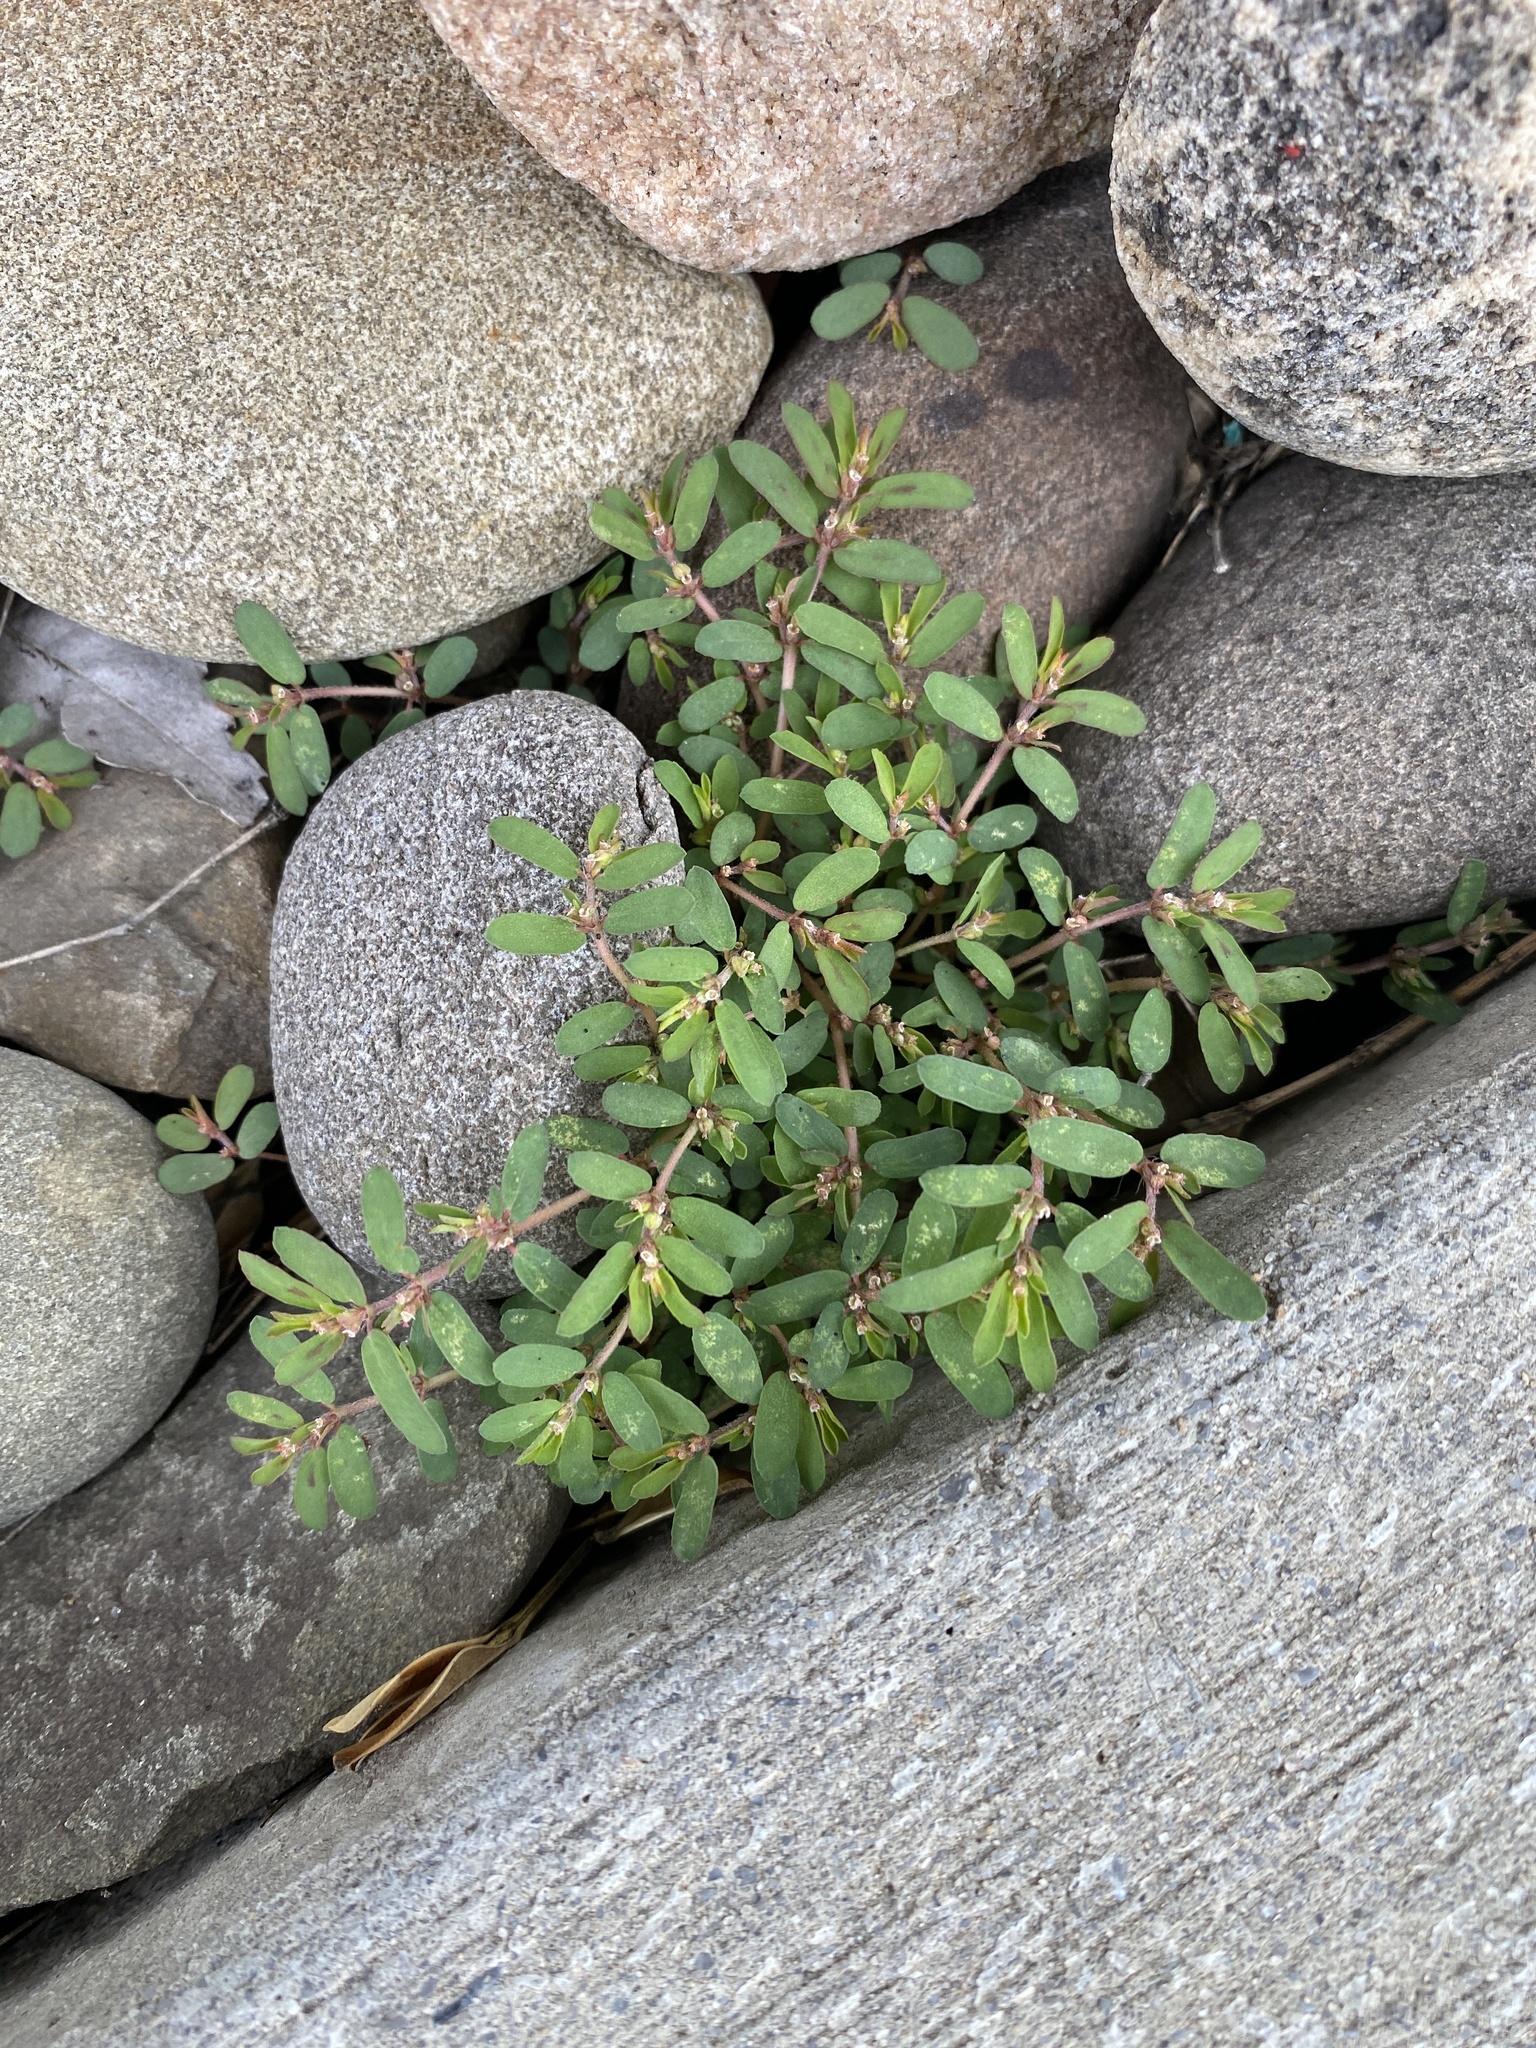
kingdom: Plantae
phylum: Tracheophyta
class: Magnoliopsida
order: Malpighiales
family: Euphorbiaceae
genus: Euphorbia
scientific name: Euphorbia maculata
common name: Spotted spurge
